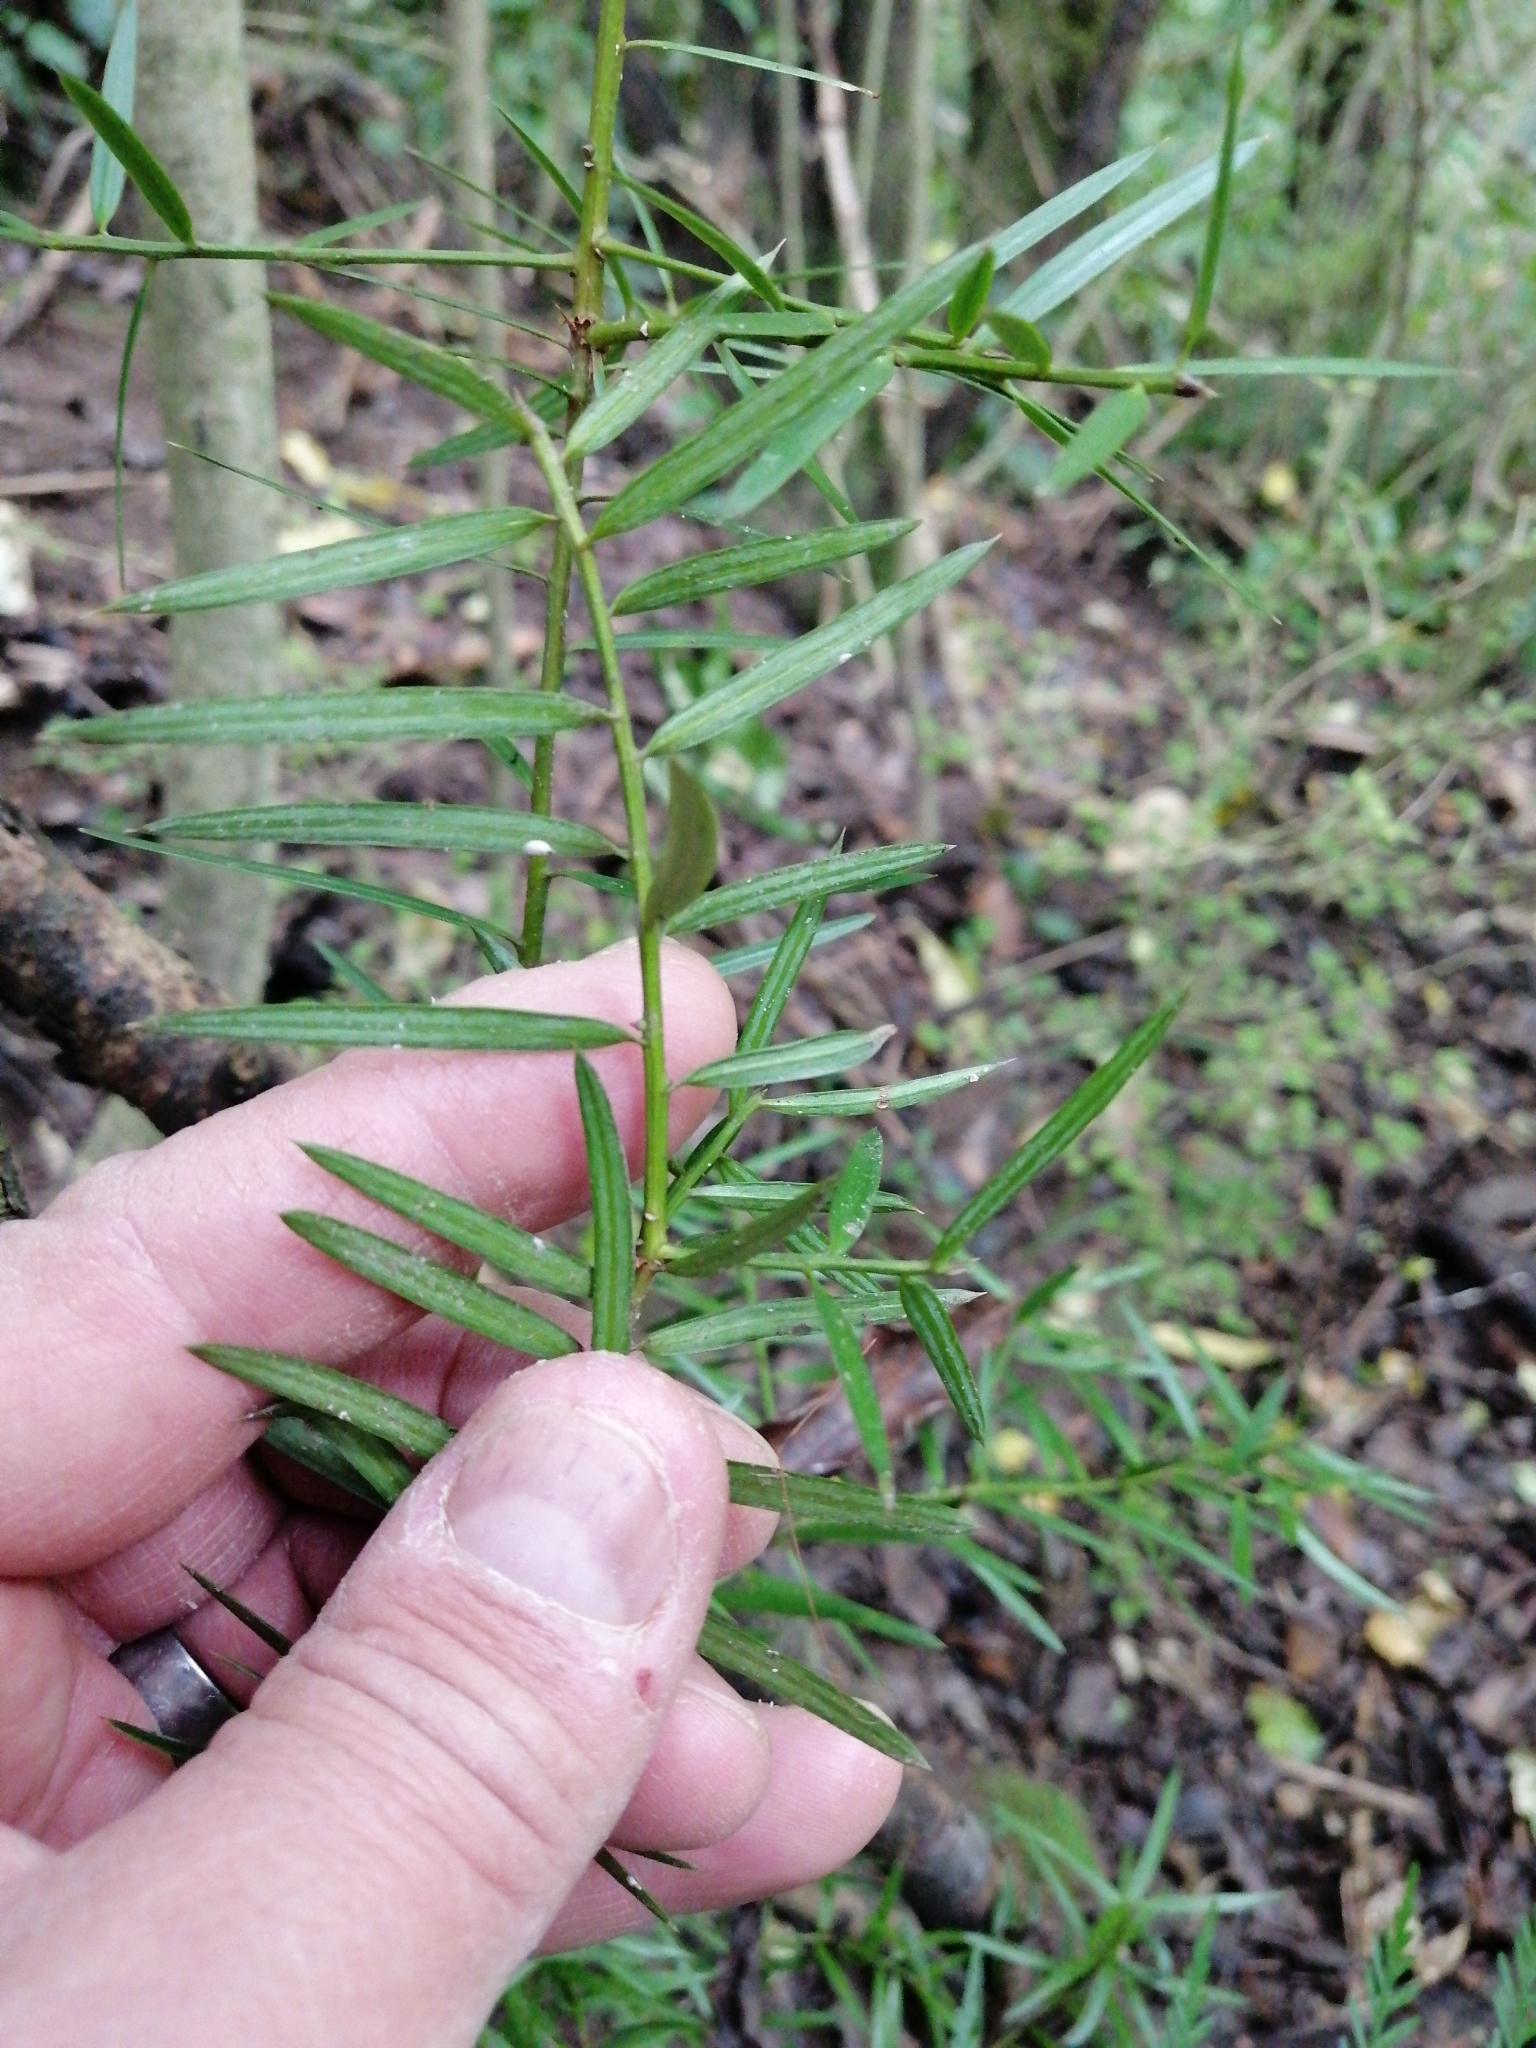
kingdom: Plantae
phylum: Tracheophyta
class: Pinopsida
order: Pinales
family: Podocarpaceae
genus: Podocarpus
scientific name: Podocarpus totara
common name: Totara
